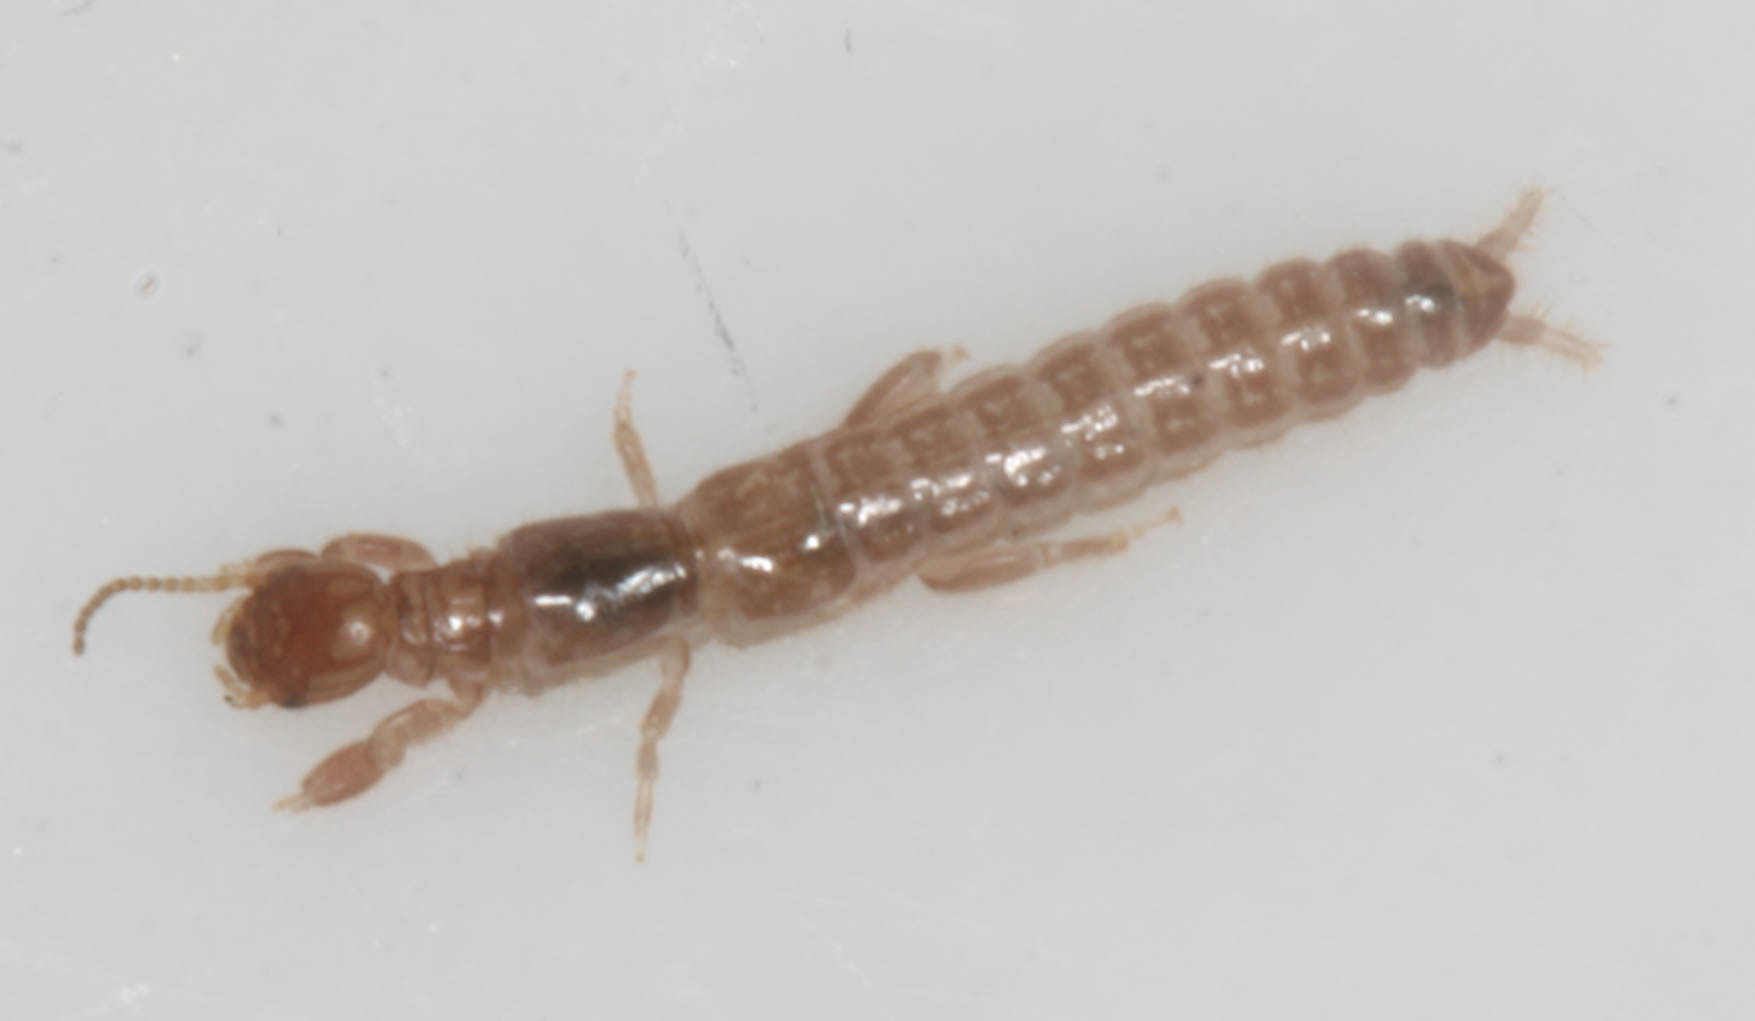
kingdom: Animalia
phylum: Arthropoda
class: Insecta
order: Embioptera
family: Oligotomidae
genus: Haploembia
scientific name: Haploembia solieri
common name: Webspinner
